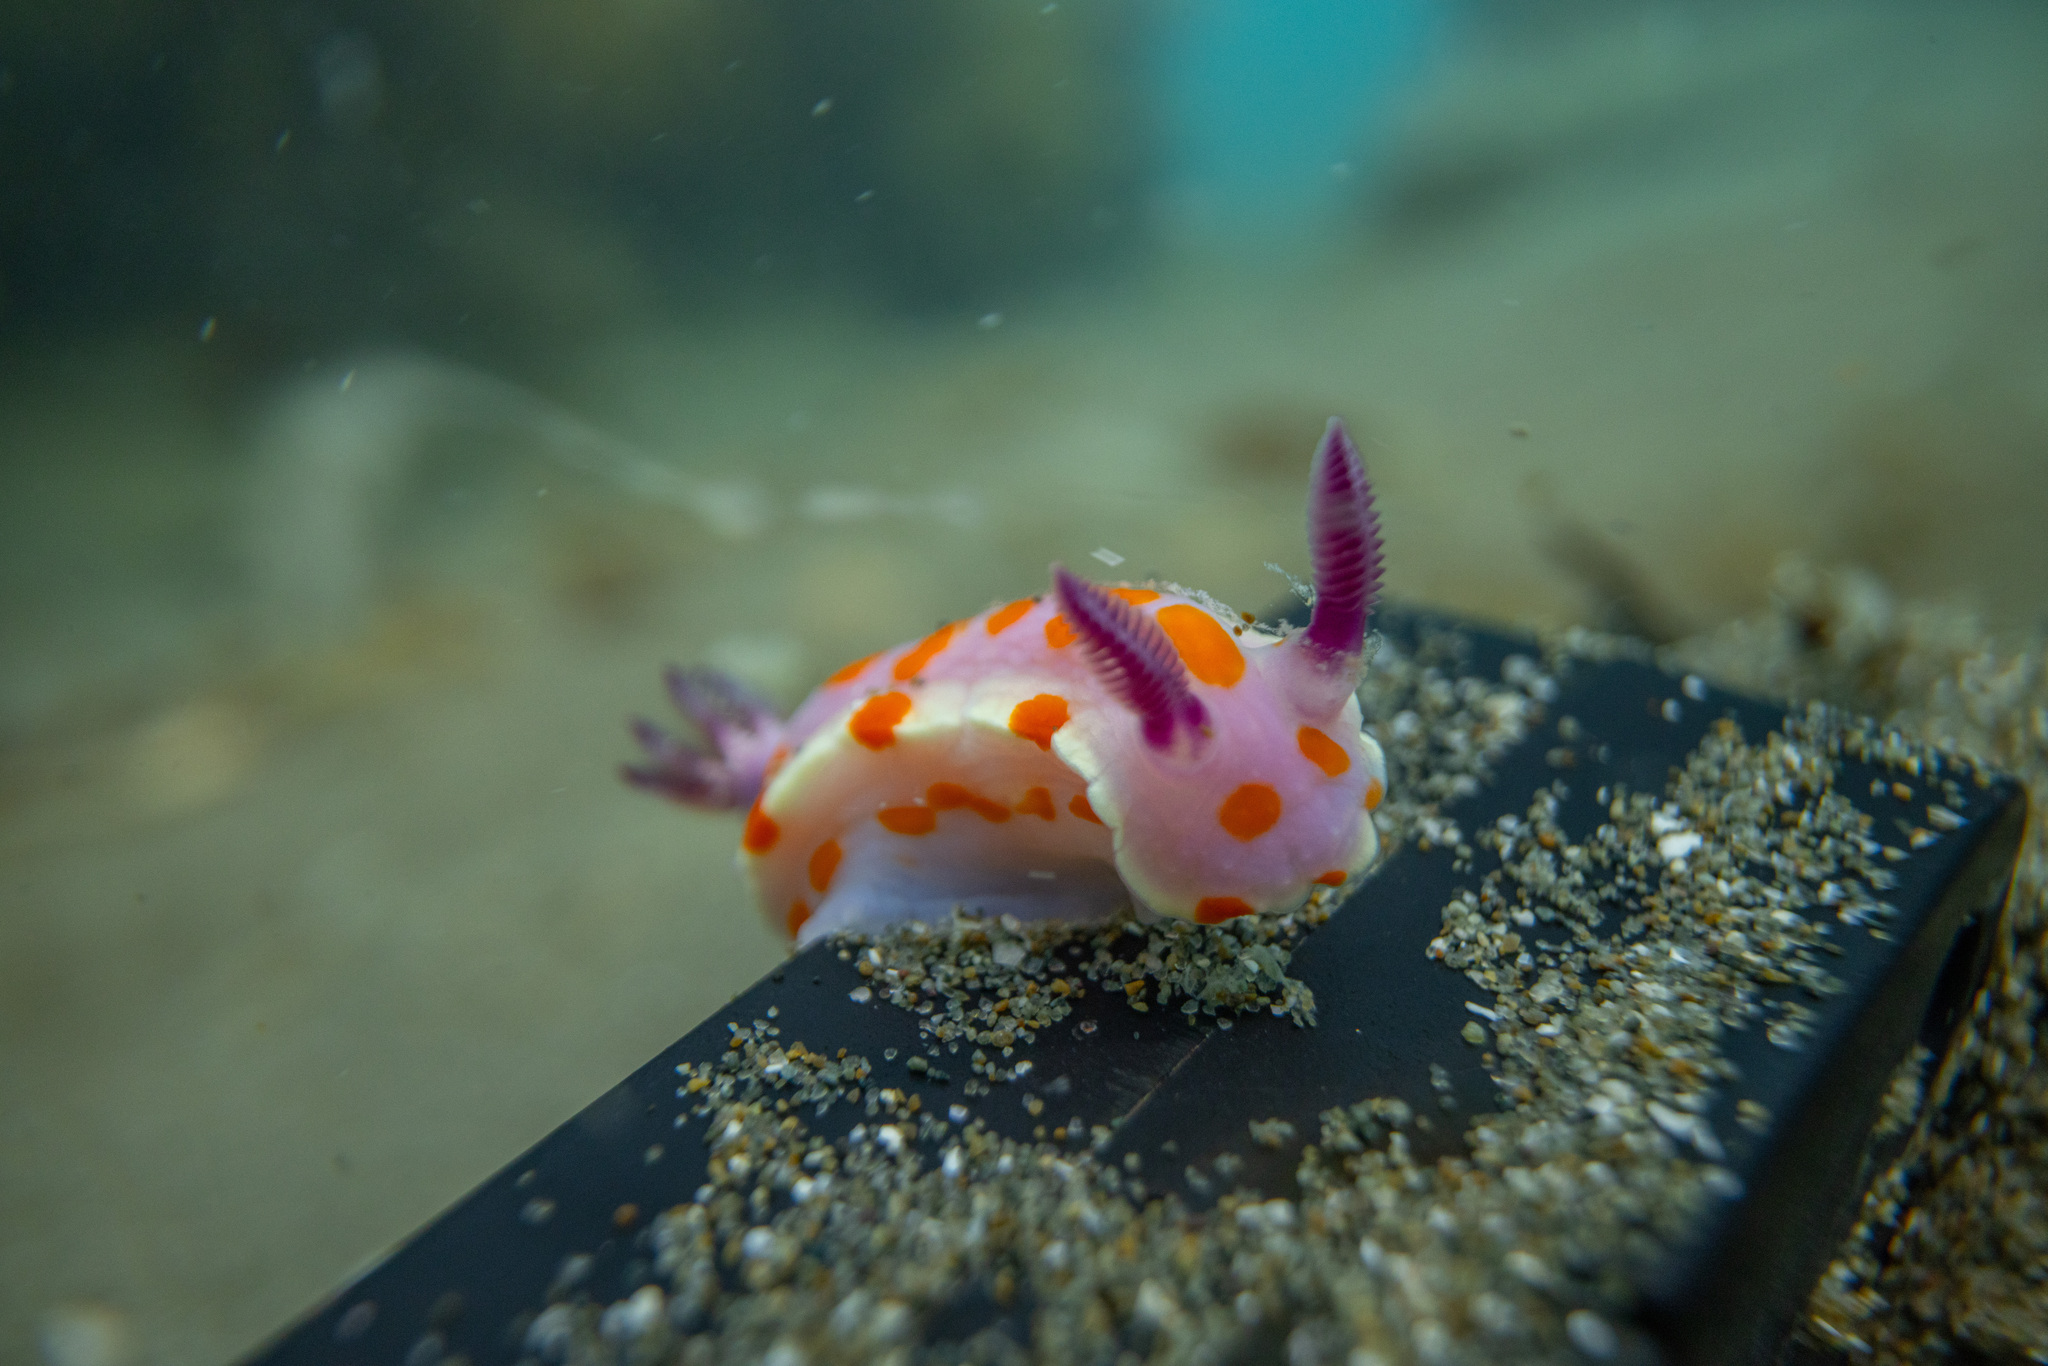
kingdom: Animalia
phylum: Mollusca
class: Gastropoda
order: Nudibranchia
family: Chromodorididae
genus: Ceratosoma
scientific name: Ceratosoma amoenum
